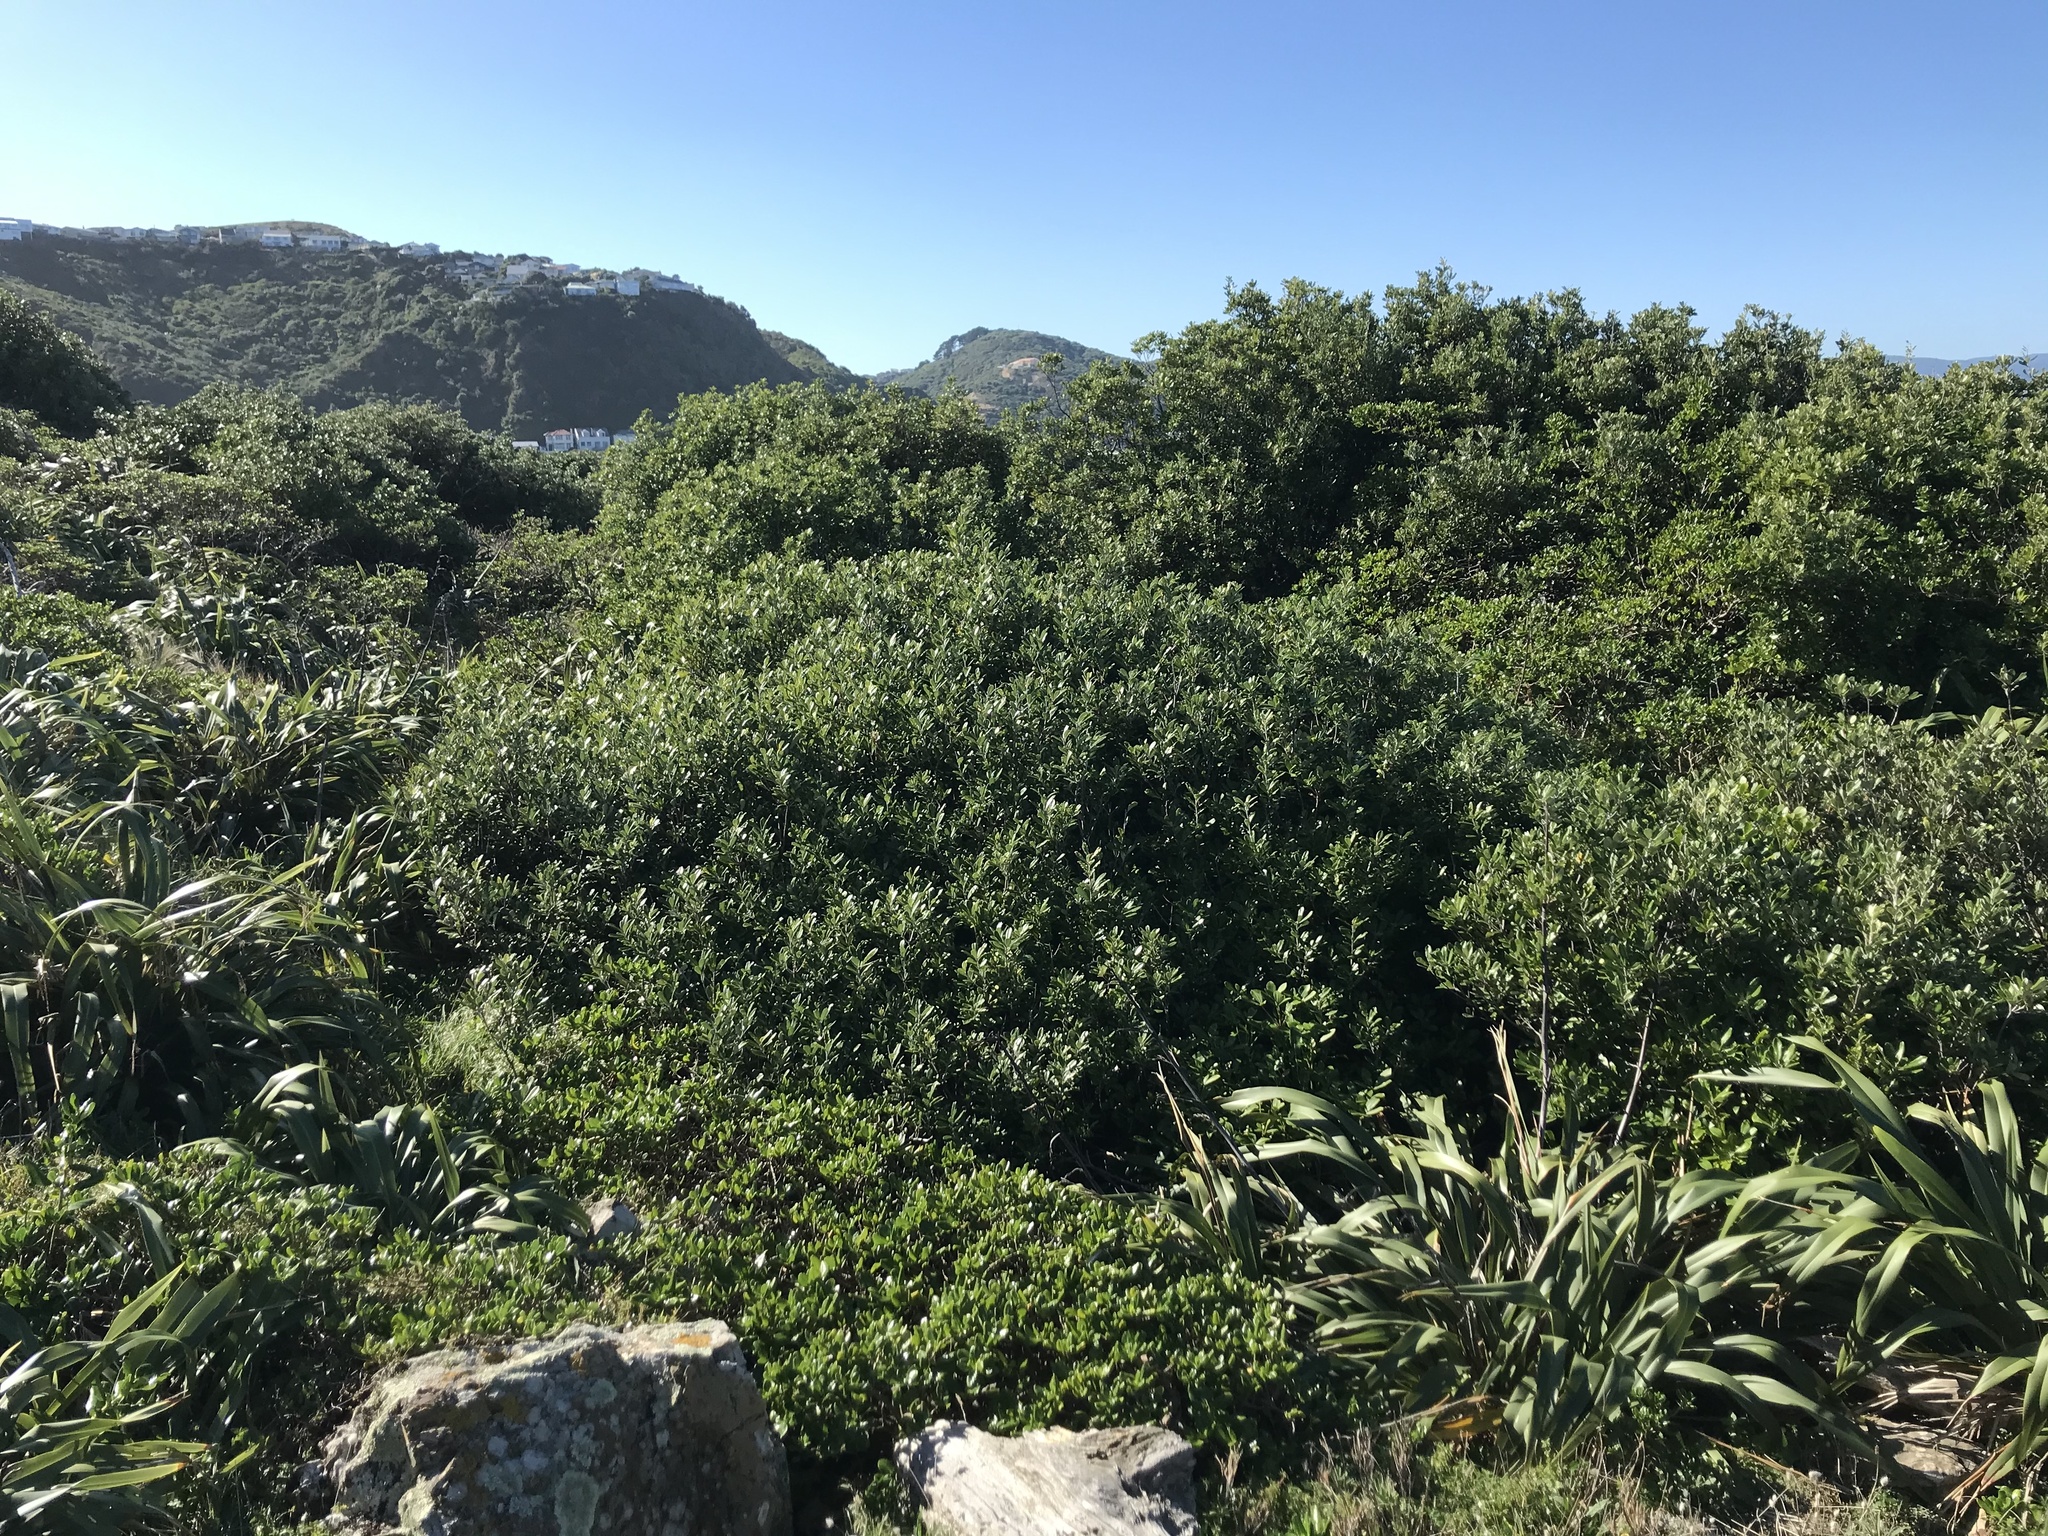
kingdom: Plantae
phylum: Tracheophyta
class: Magnoliopsida
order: Malpighiales
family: Violaceae
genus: Melicytus
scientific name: Melicytus orarius
